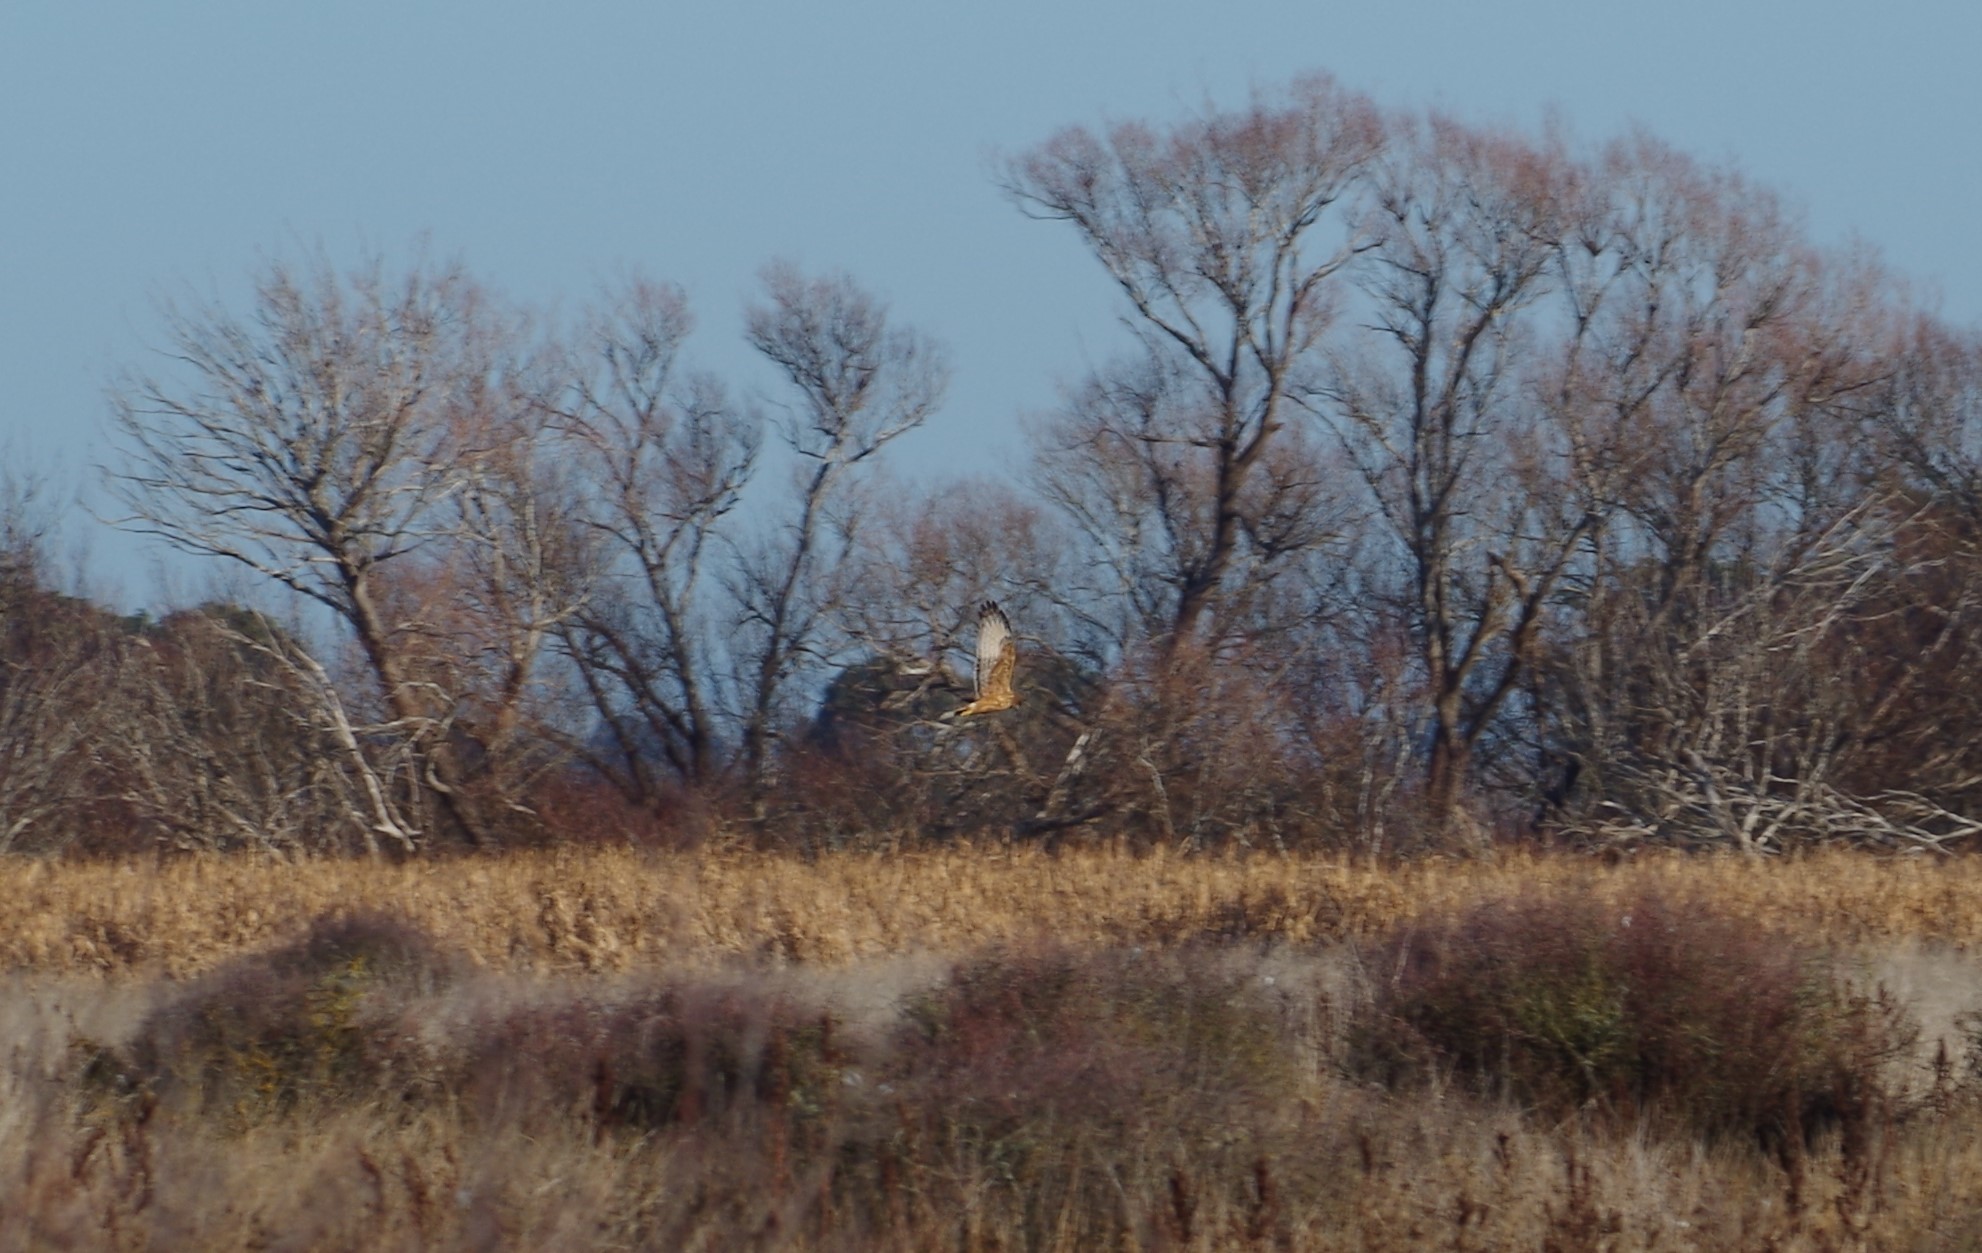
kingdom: Animalia
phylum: Chordata
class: Aves
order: Accipitriformes
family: Accipitridae
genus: Circus
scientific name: Circus approximans
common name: Swamp harrier
